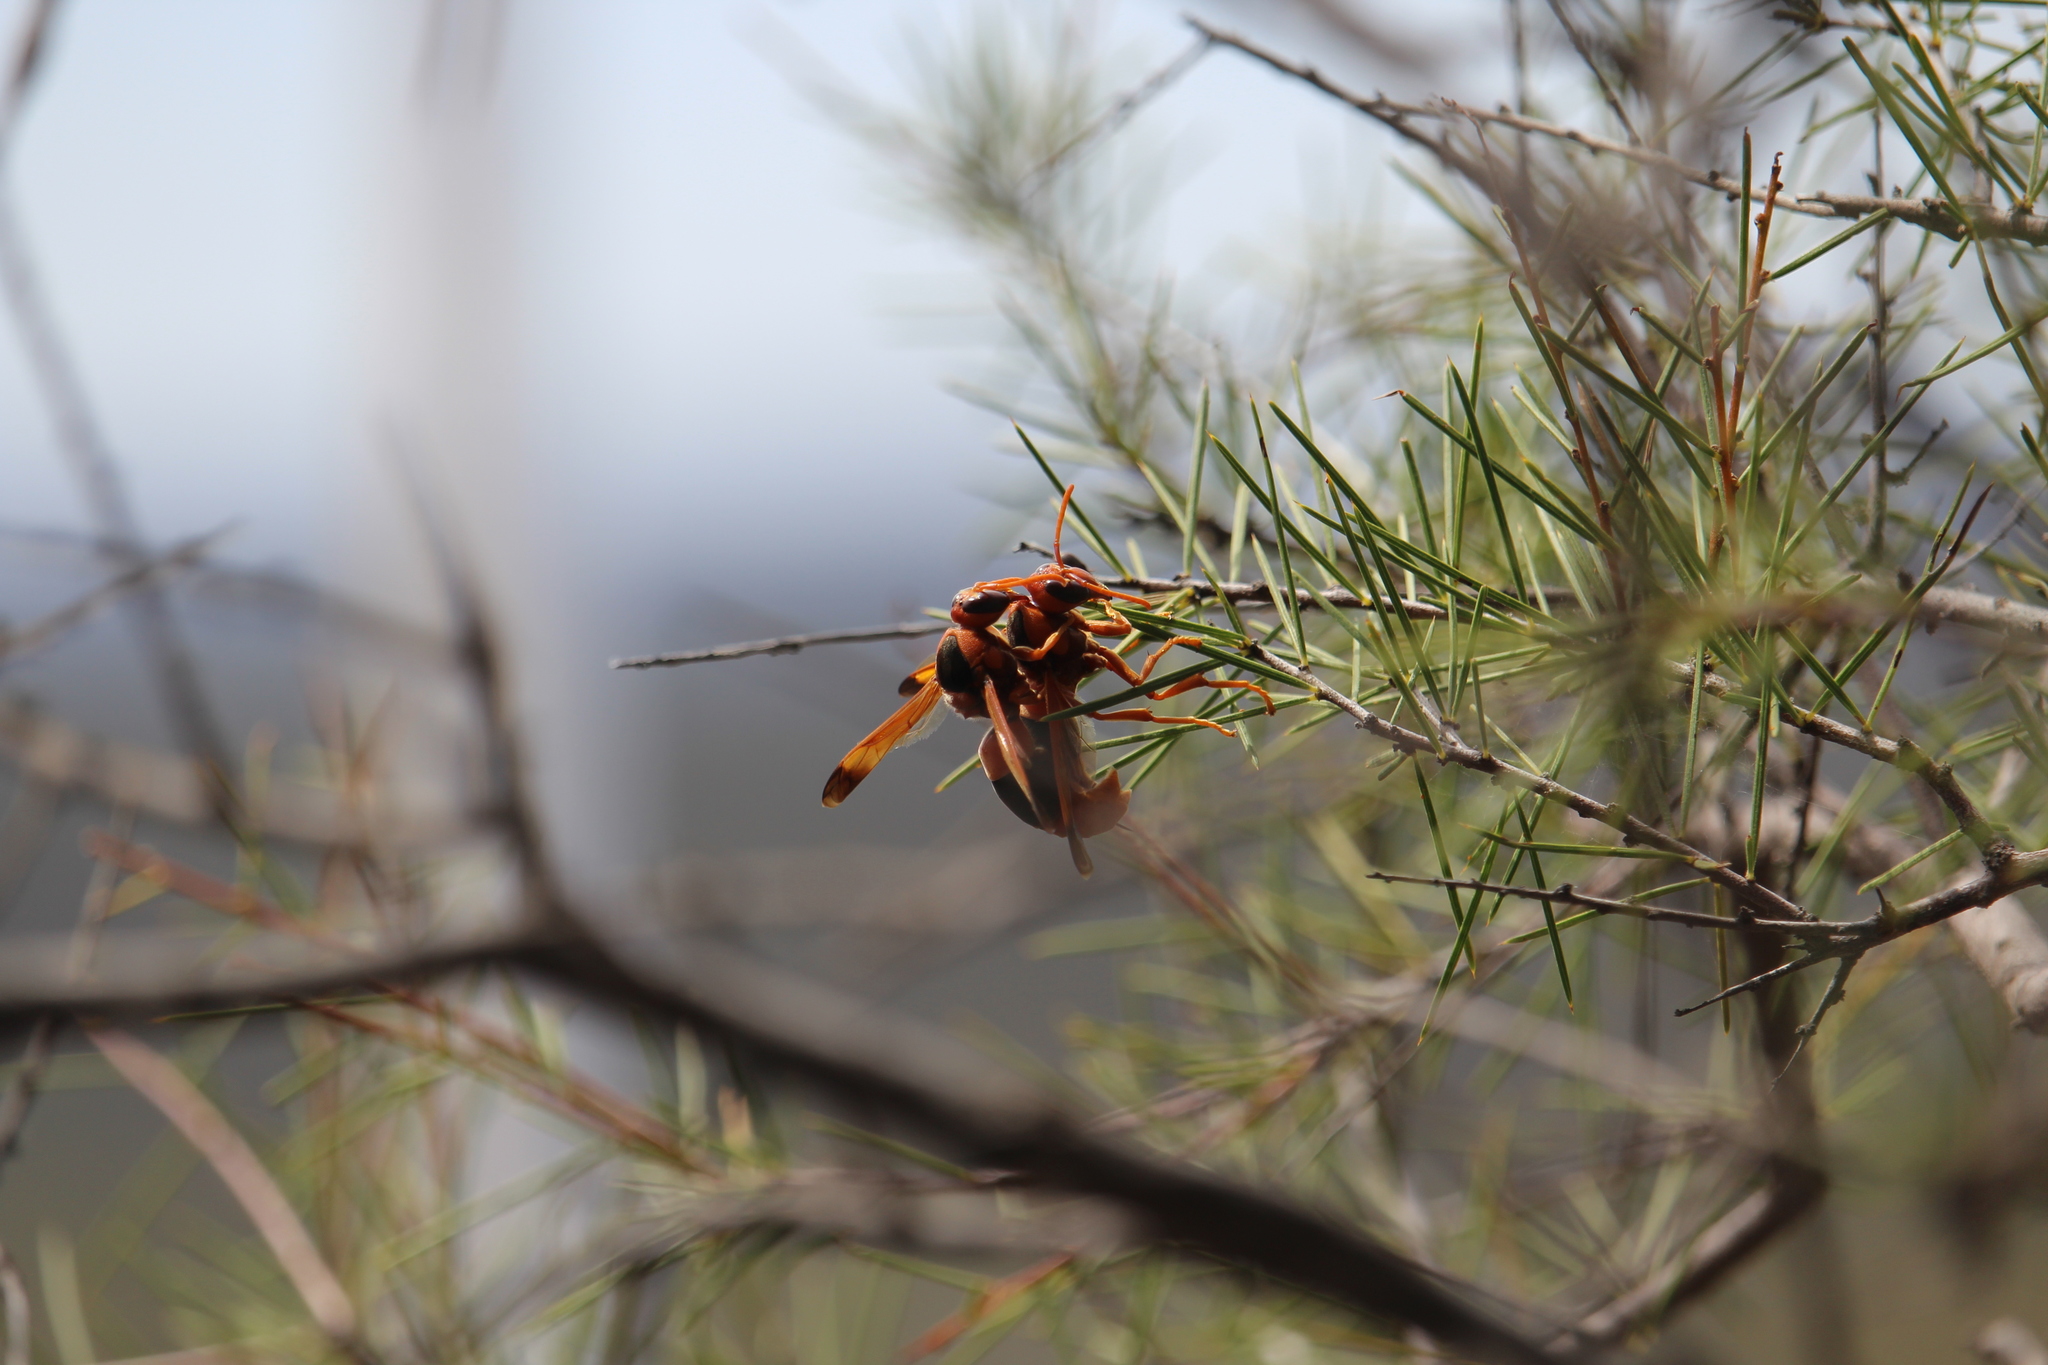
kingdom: Animalia
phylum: Arthropoda
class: Insecta
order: Hymenoptera
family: Eumenidae
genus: Abispa
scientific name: Abispa ephippium
